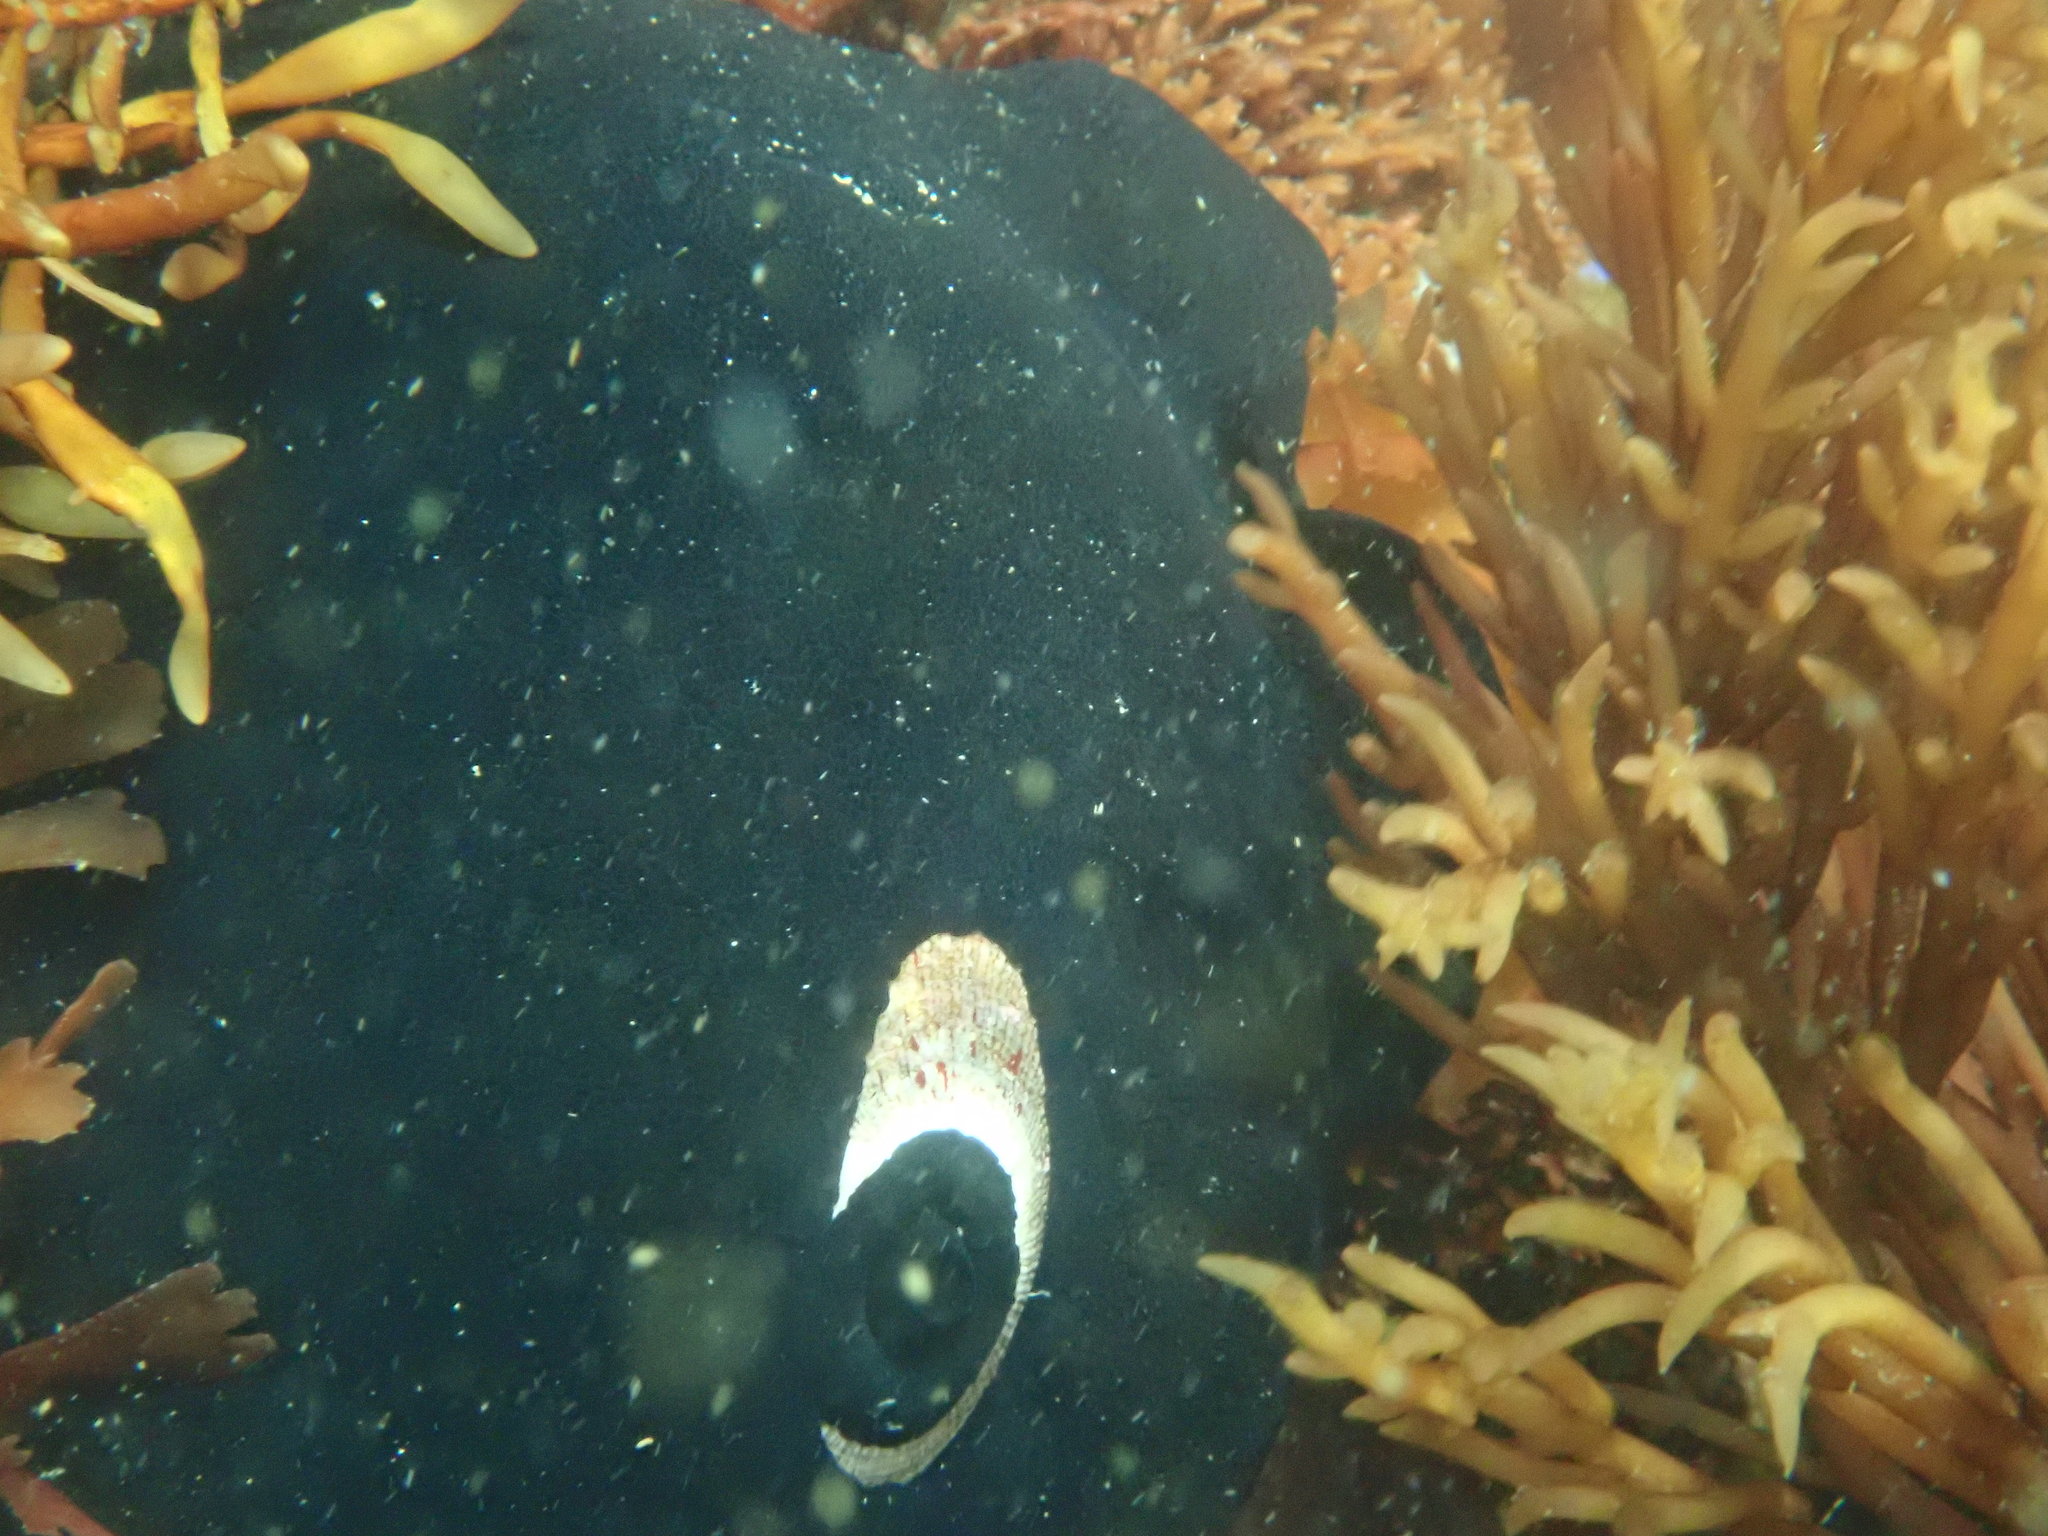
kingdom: Animalia
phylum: Mollusca
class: Gastropoda
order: Lepetellida
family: Fissurellidae
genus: Megathura
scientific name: Megathura crenulata
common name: Giant keyhole limpet
